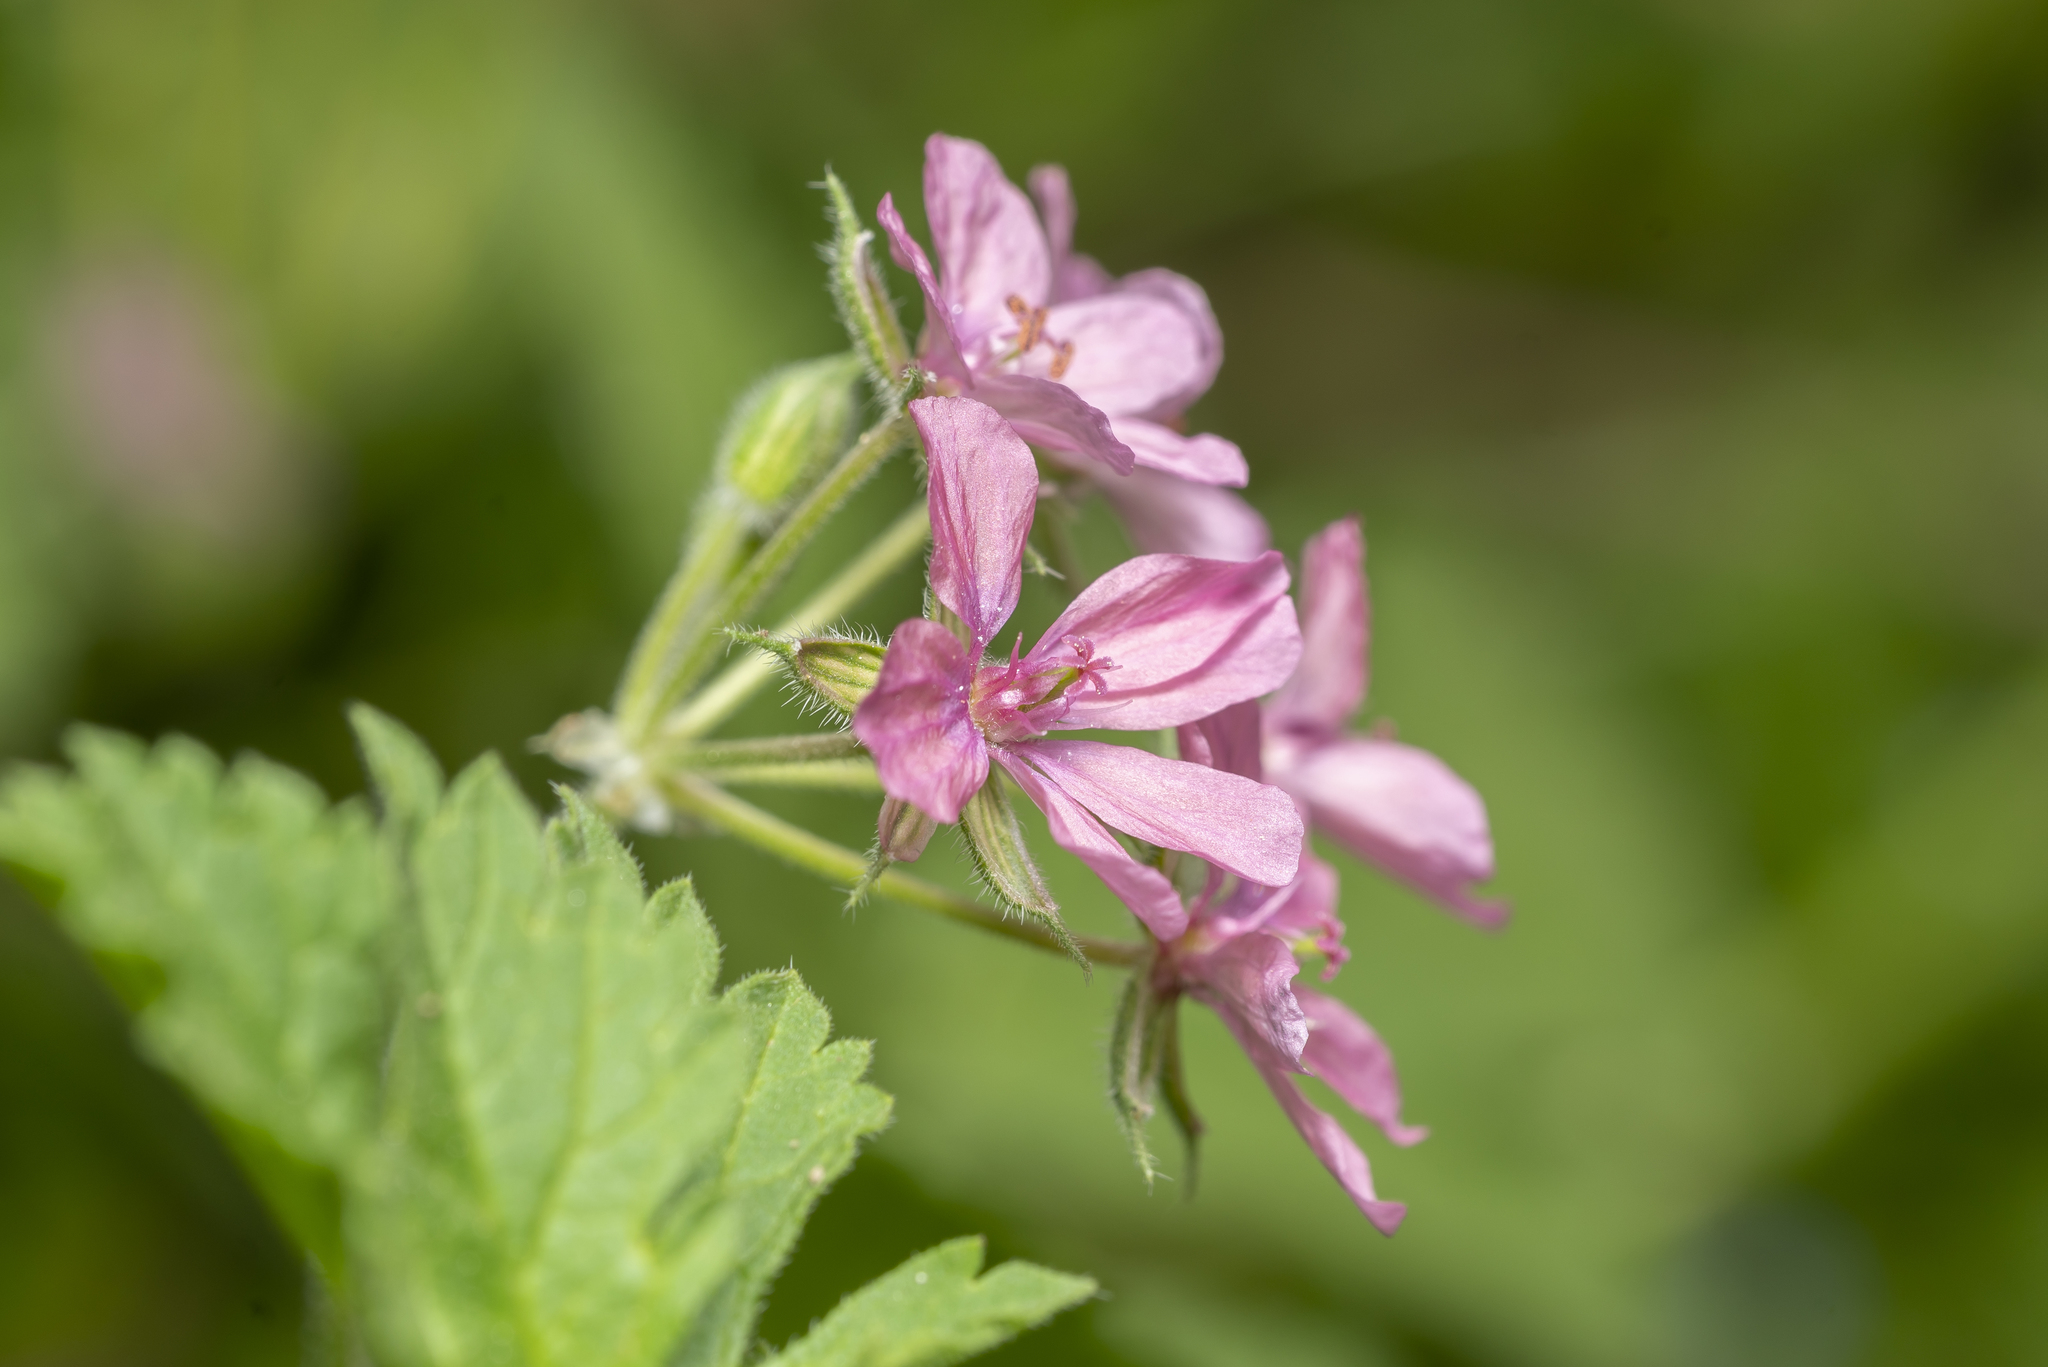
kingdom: Plantae
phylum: Tracheophyta
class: Magnoliopsida
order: Geraniales
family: Geraniaceae
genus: Erodium
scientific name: Erodium chium
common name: Three-lobed stork's-bill
